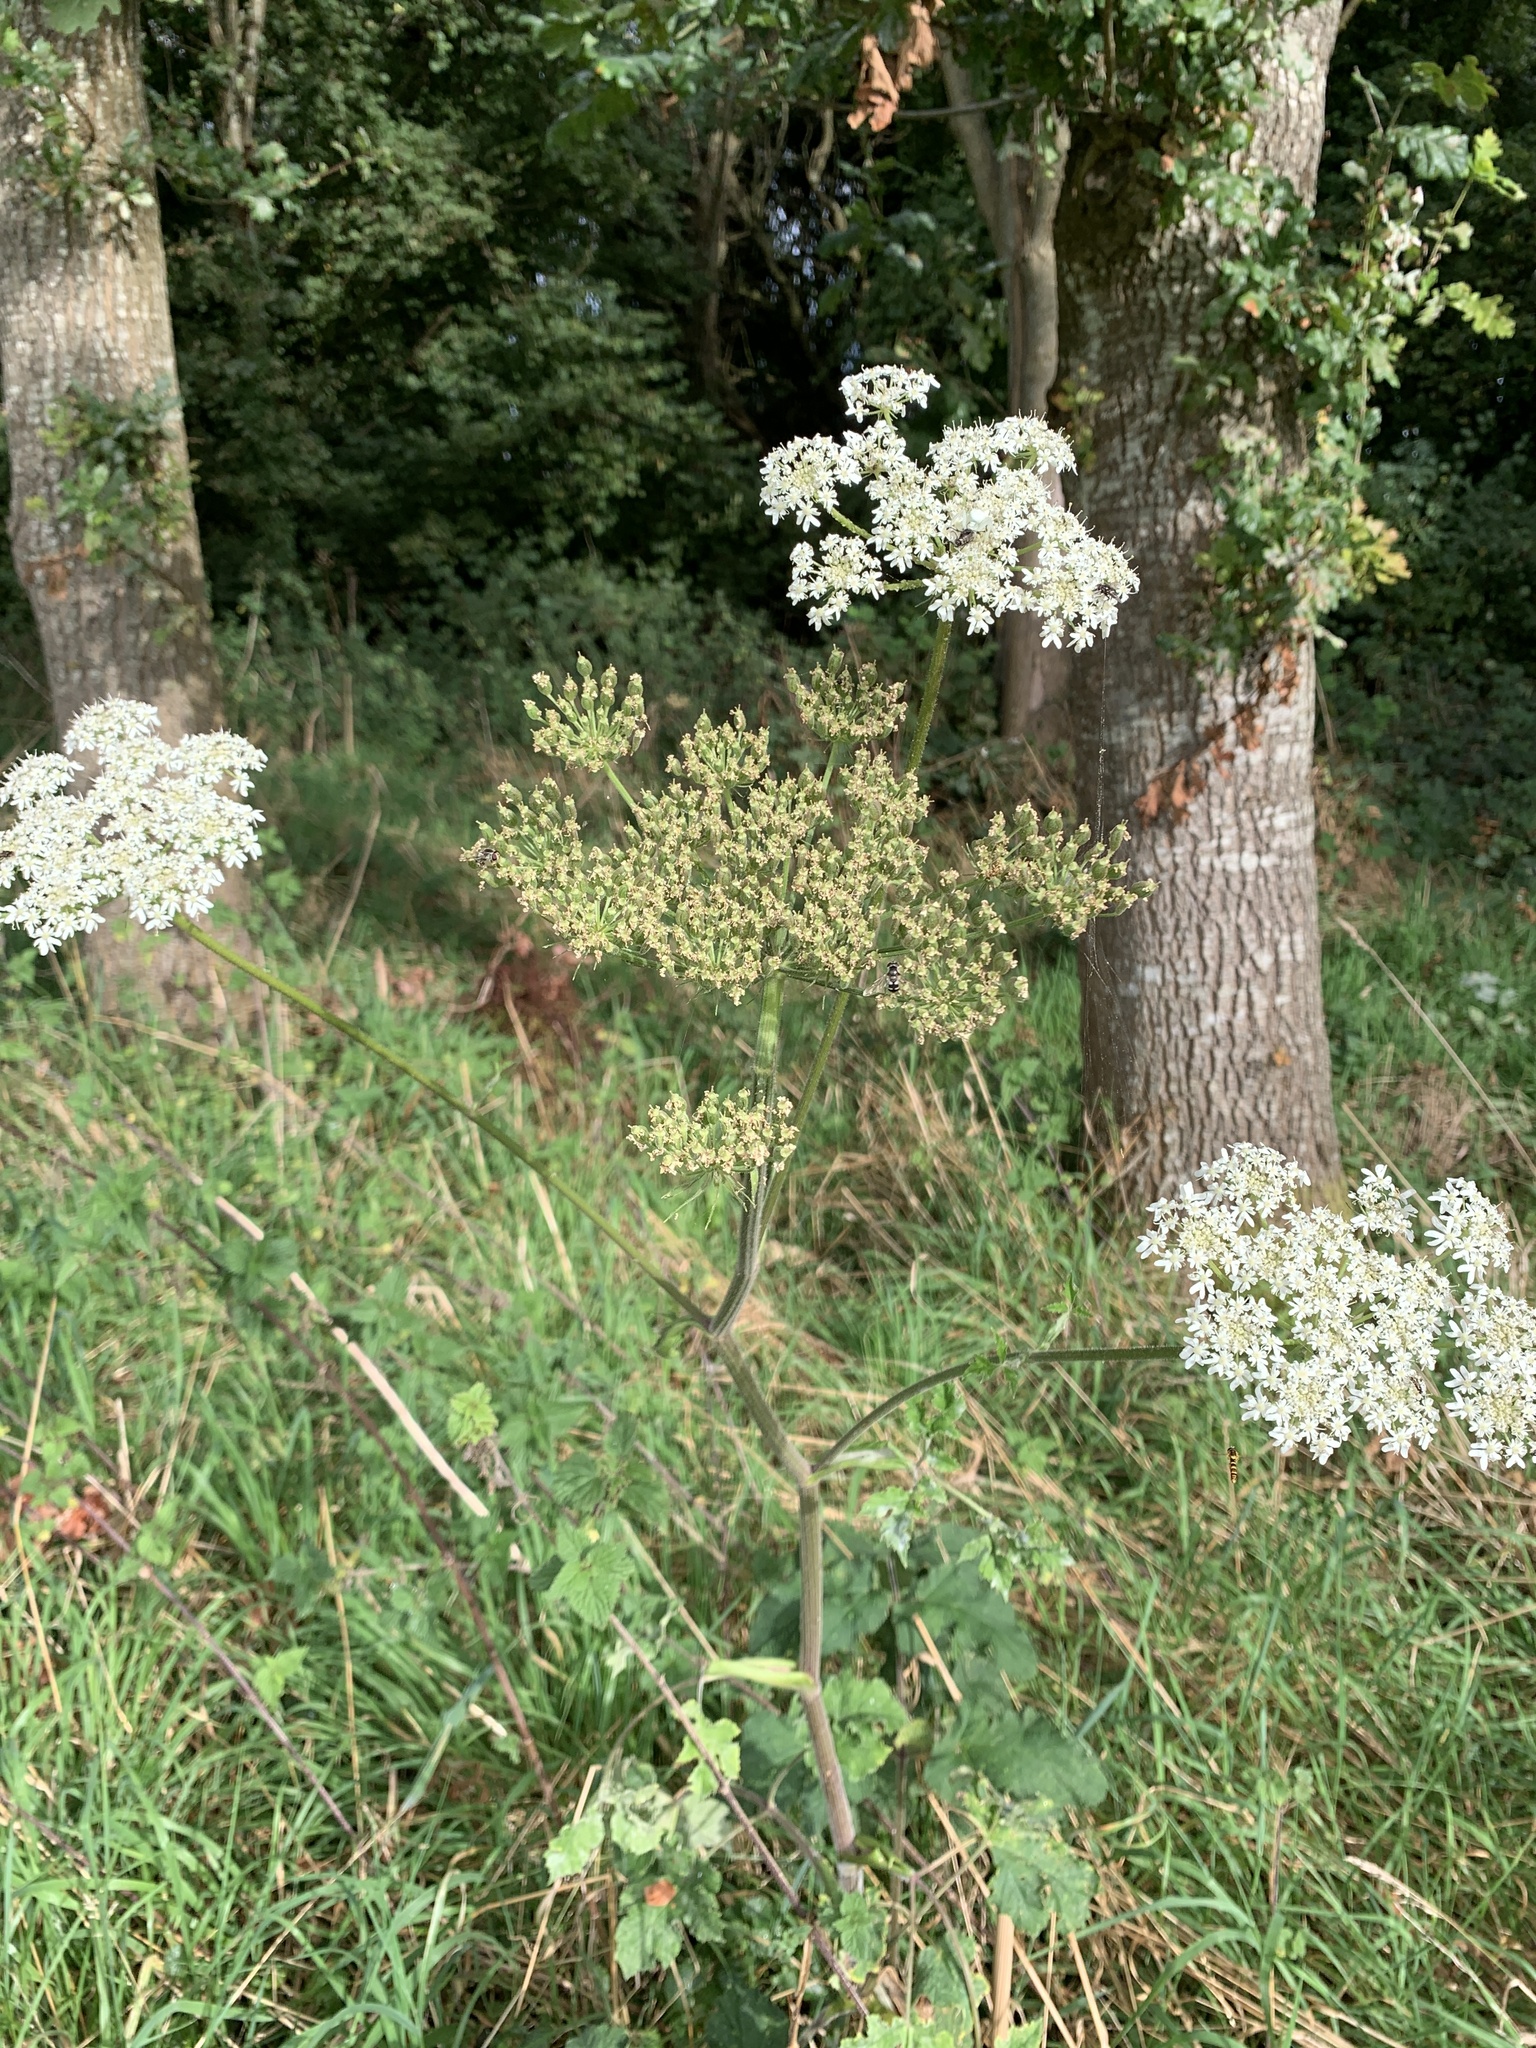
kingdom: Plantae
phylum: Tracheophyta
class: Magnoliopsida
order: Apiales
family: Apiaceae
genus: Heracleum
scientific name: Heracleum sphondylium
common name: Hogweed
